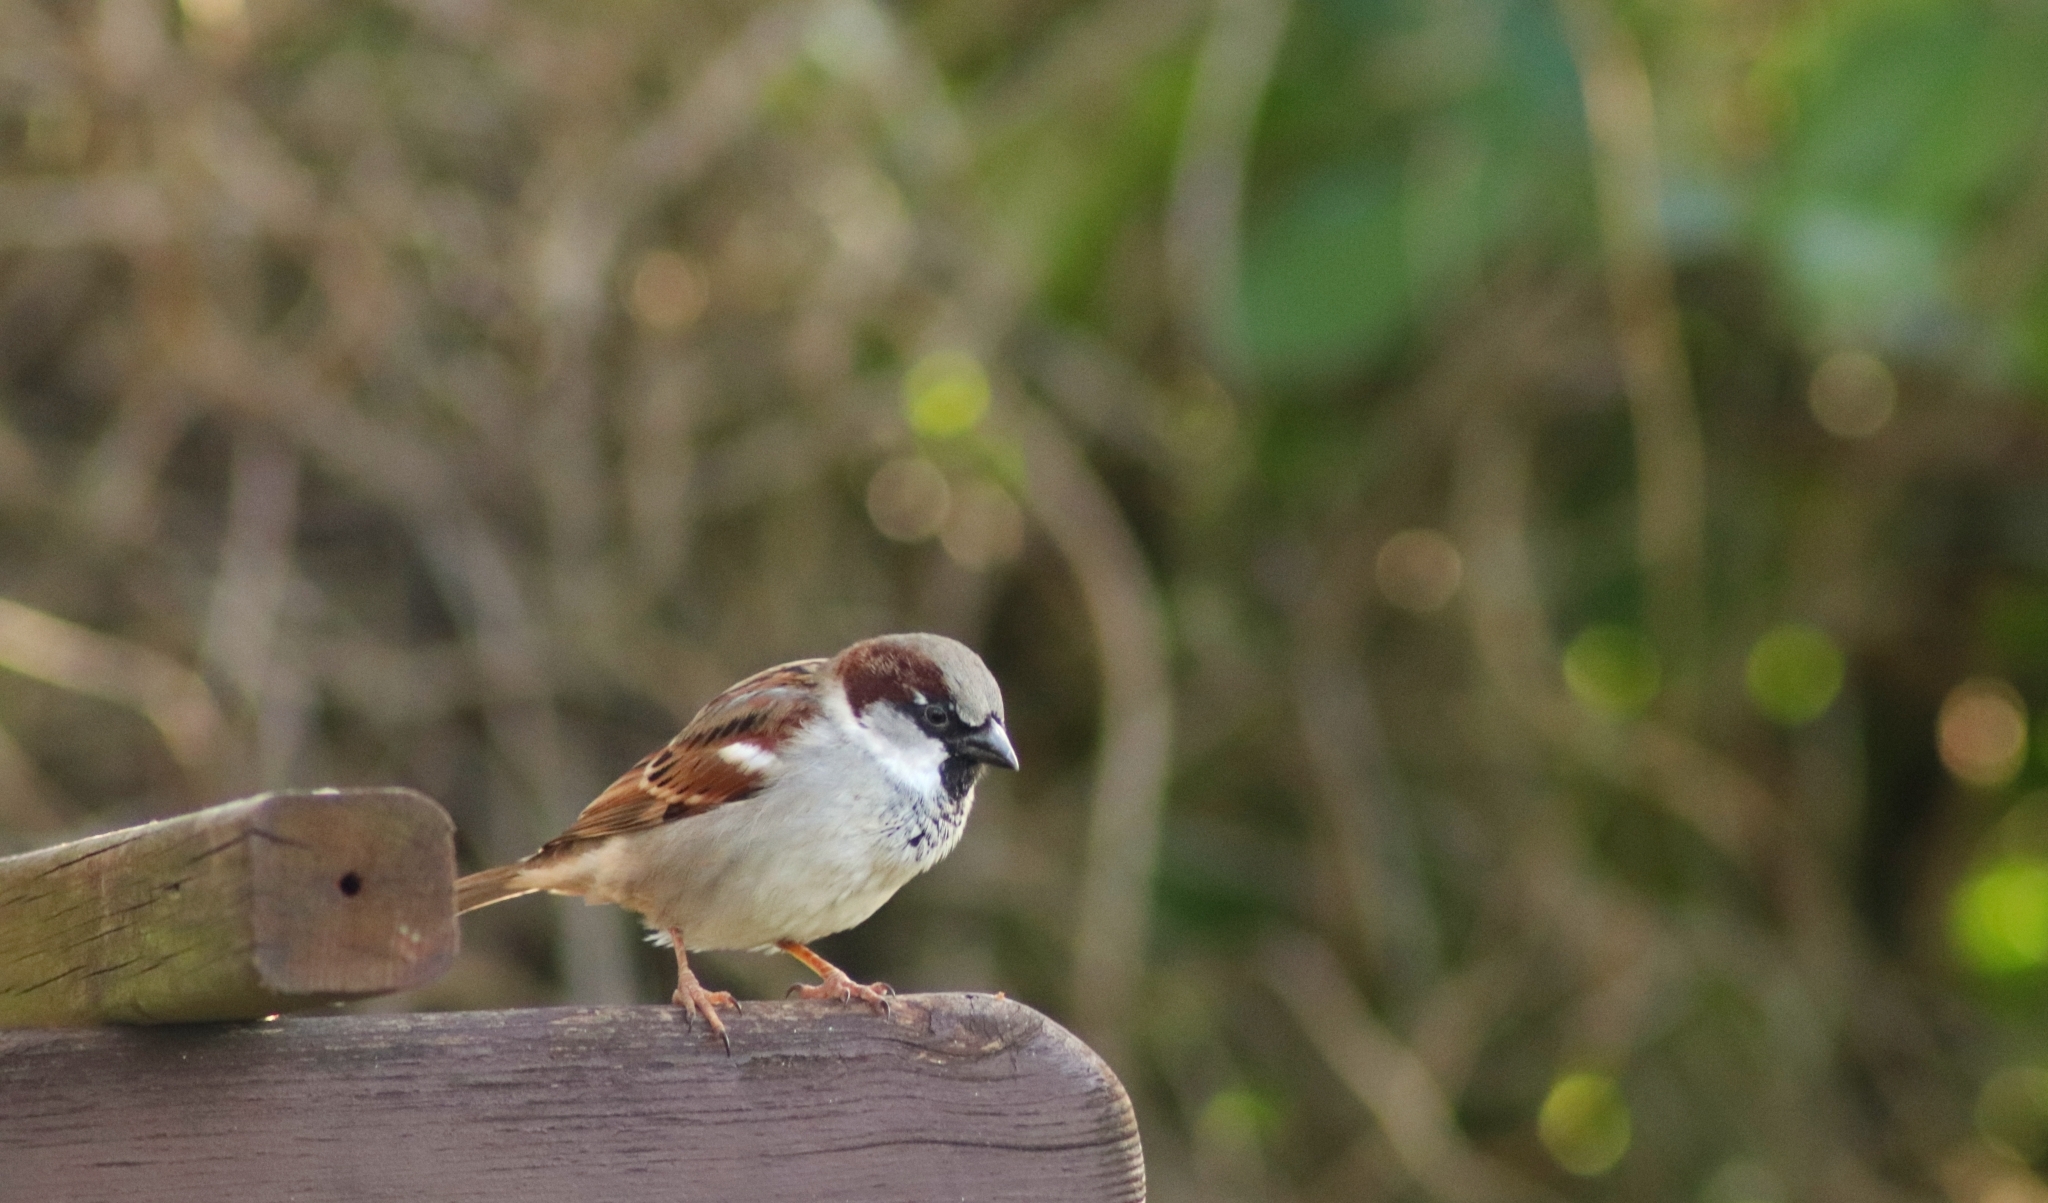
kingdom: Animalia
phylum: Chordata
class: Aves
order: Passeriformes
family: Passeridae
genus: Passer
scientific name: Passer domesticus
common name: House sparrow
